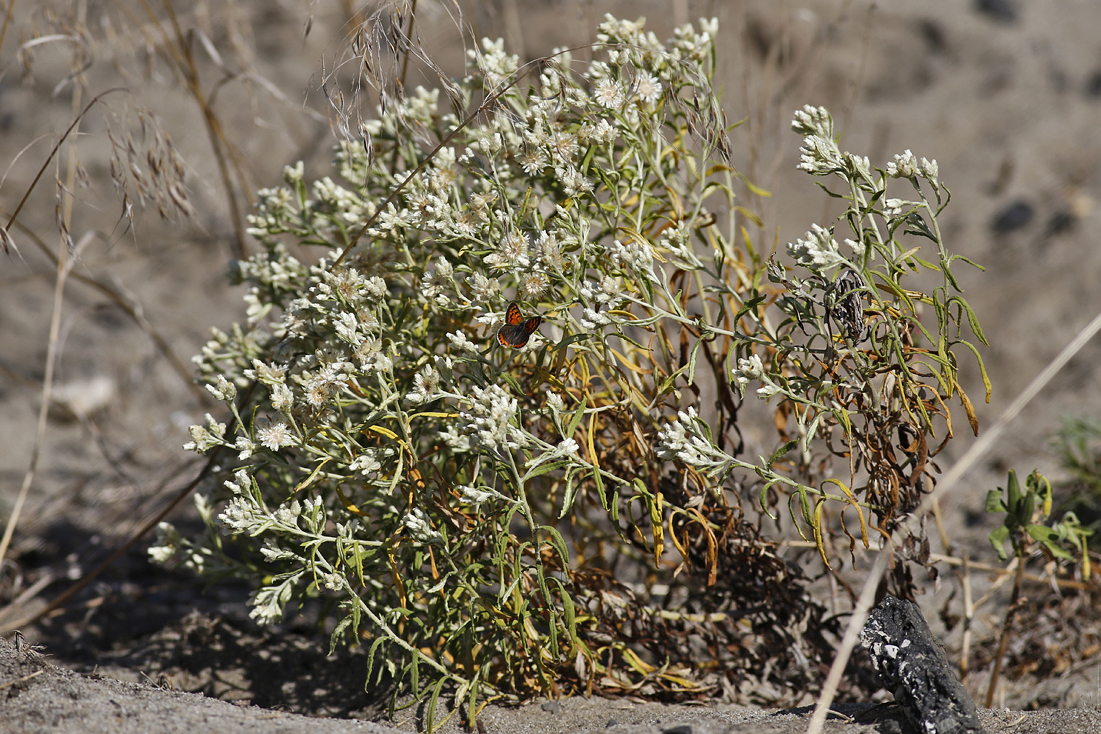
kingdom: Plantae
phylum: Tracheophyta
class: Magnoliopsida
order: Asterales
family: Asteraceae
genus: Pseudognaphalium
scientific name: Pseudognaphalium obtusifolium
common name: Eastern rabbit-tobacco
